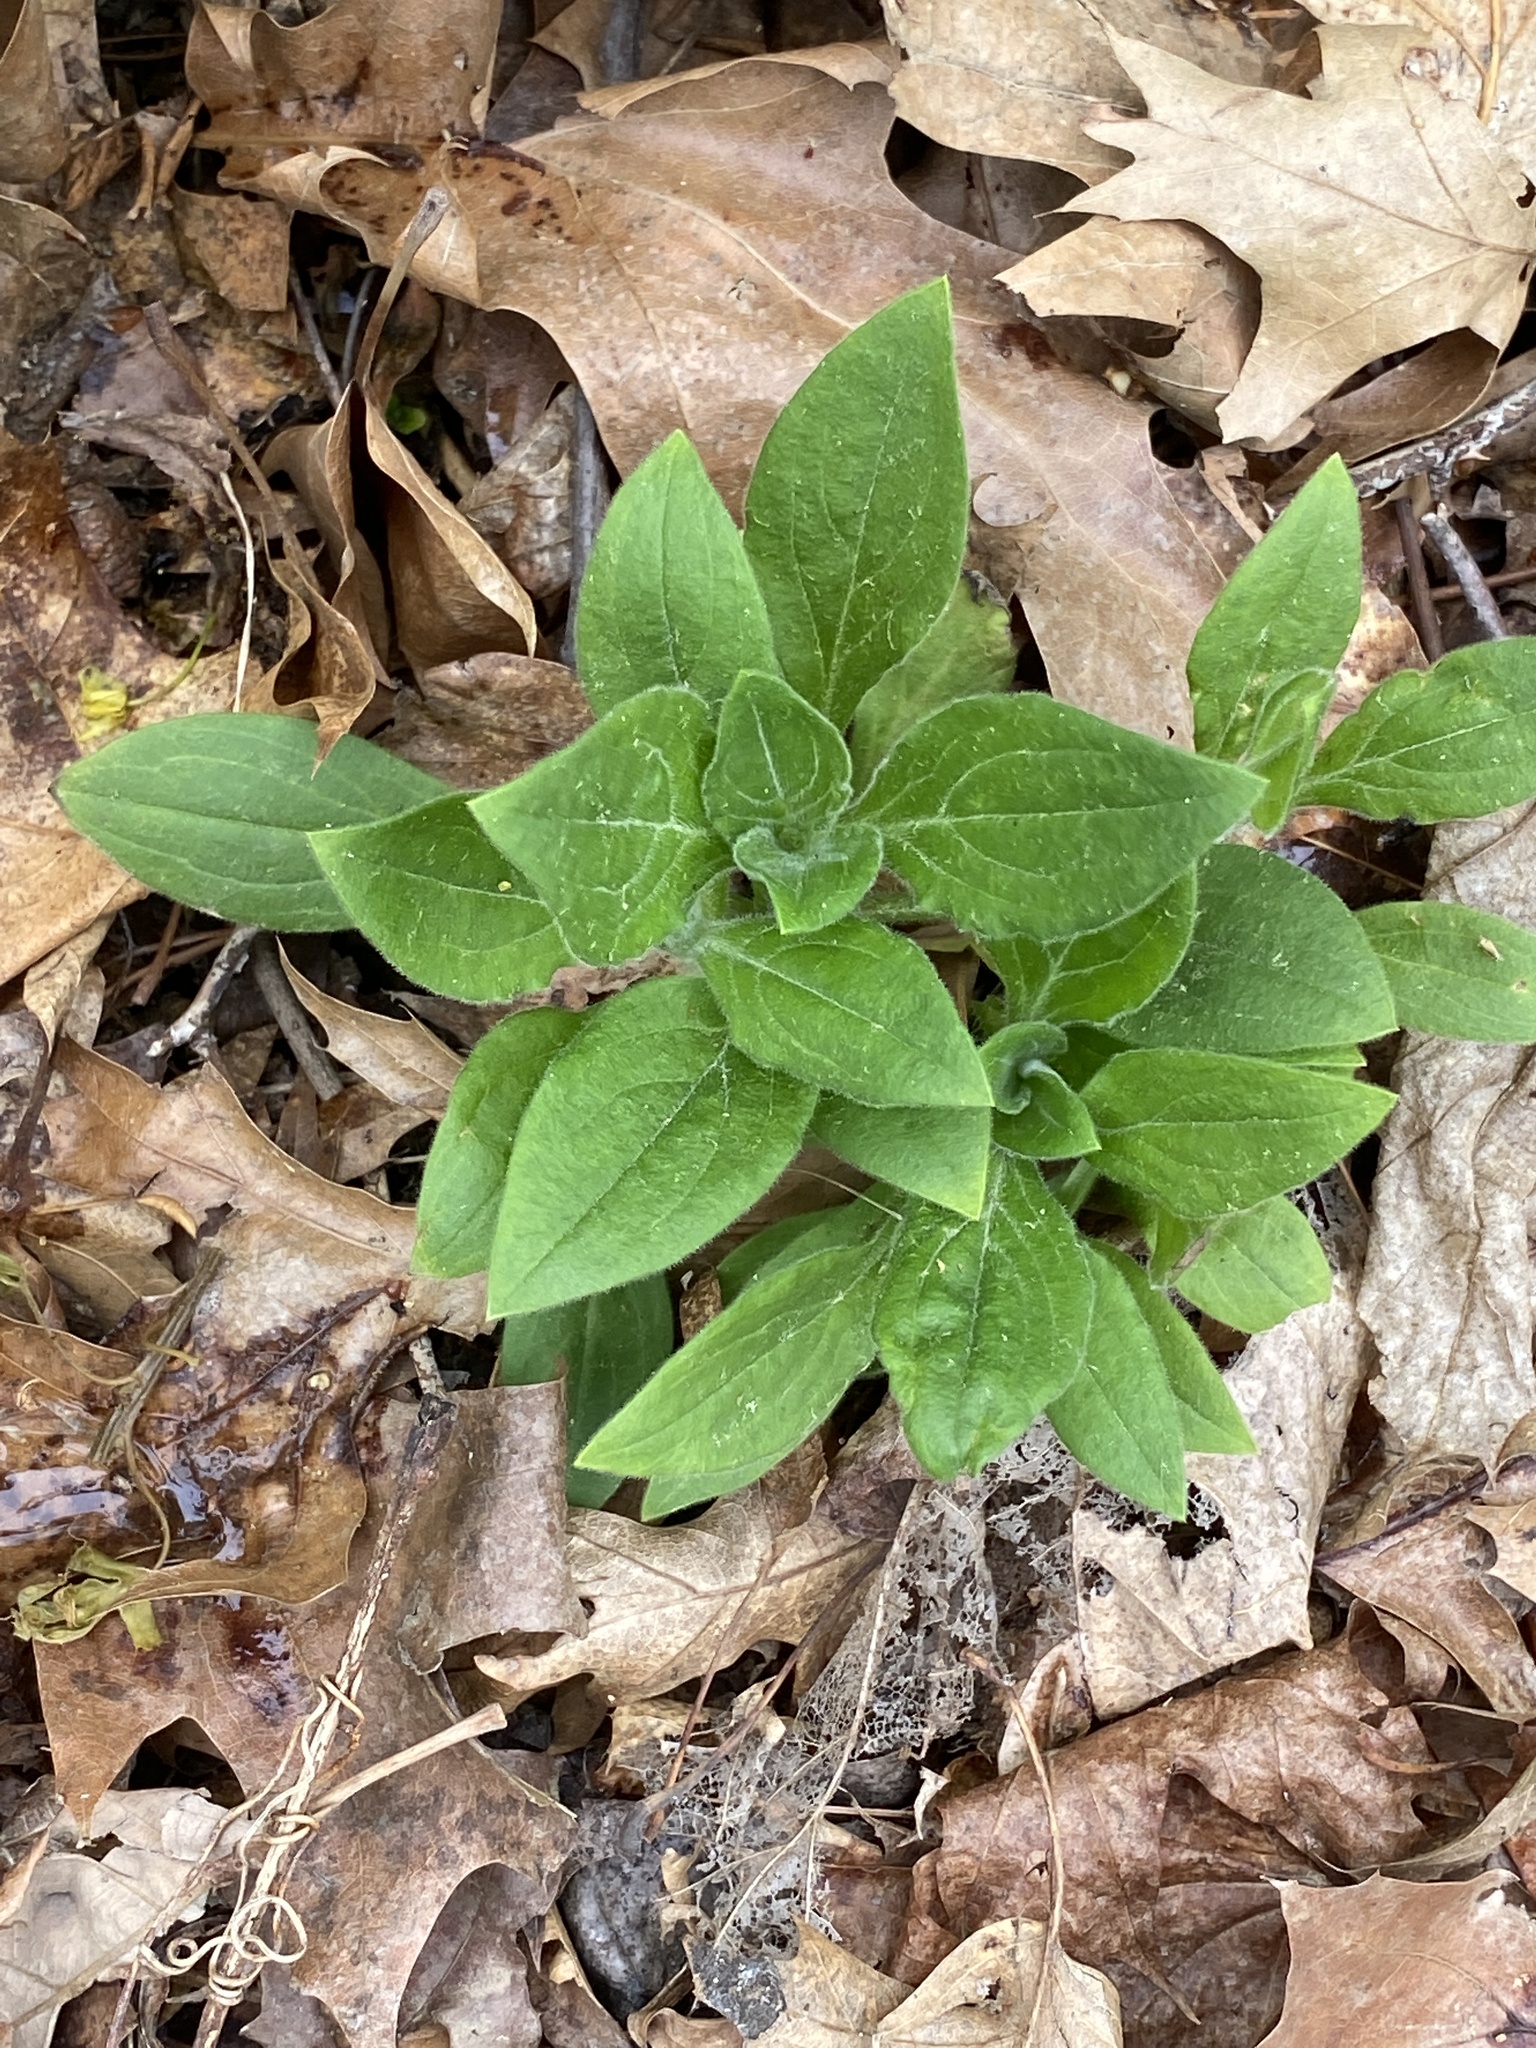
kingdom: Plantae
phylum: Tracheophyta
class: Magnoliopsida
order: Caryophyllales
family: Caryophyllaceae
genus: Silene
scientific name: Silene latifolia
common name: White campion
